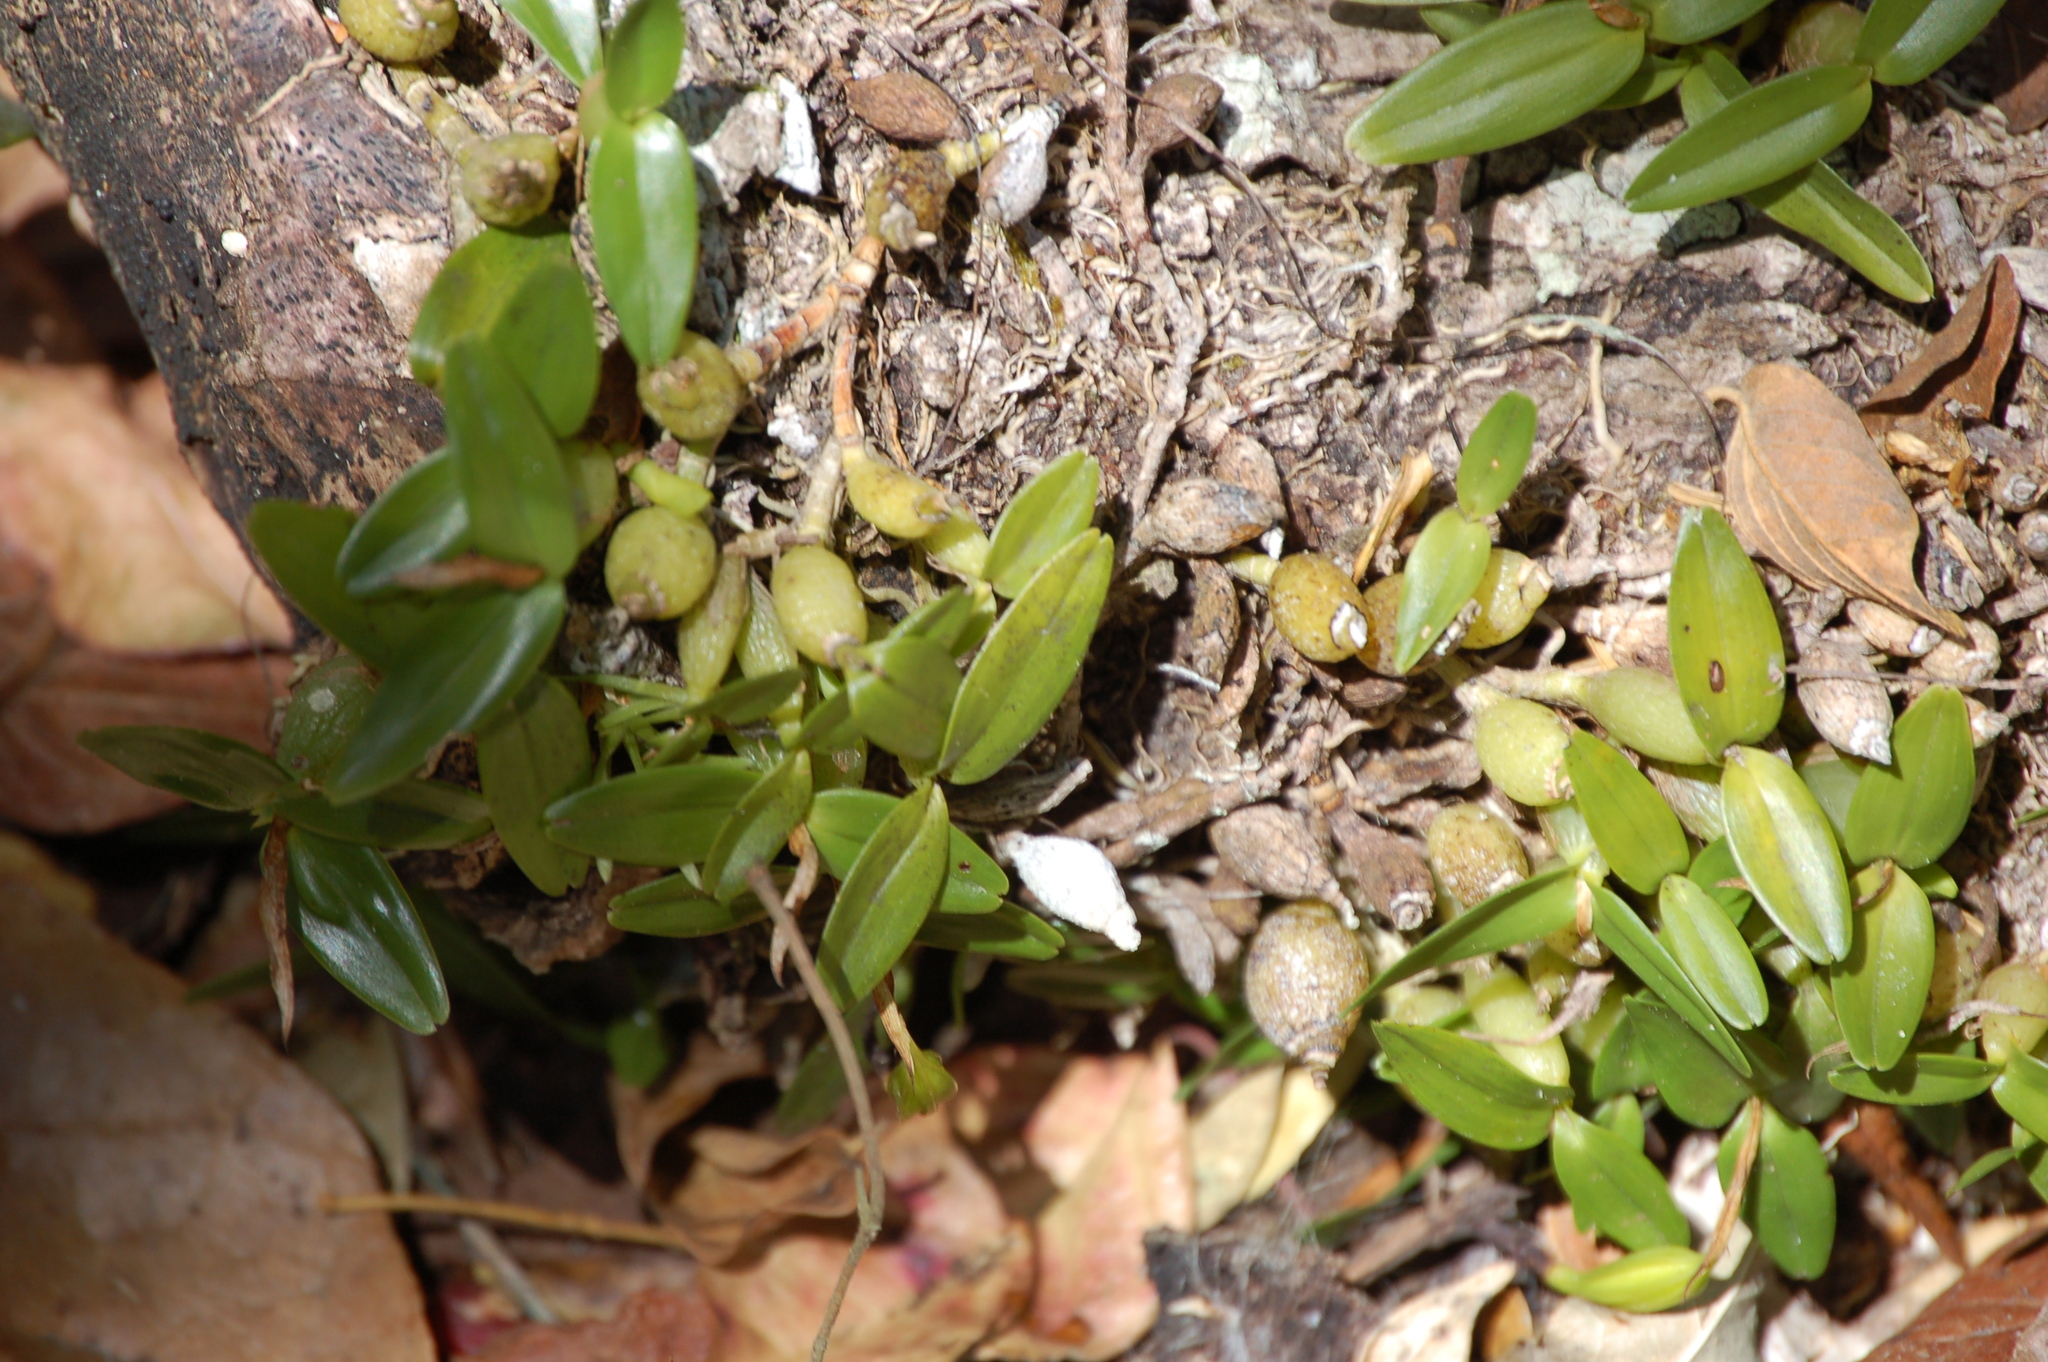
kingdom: Plantae
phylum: Tracheophyta
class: Liliopsida
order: Asparagales
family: Orchidaceae
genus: Dinema
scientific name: Dinema polybulbon
